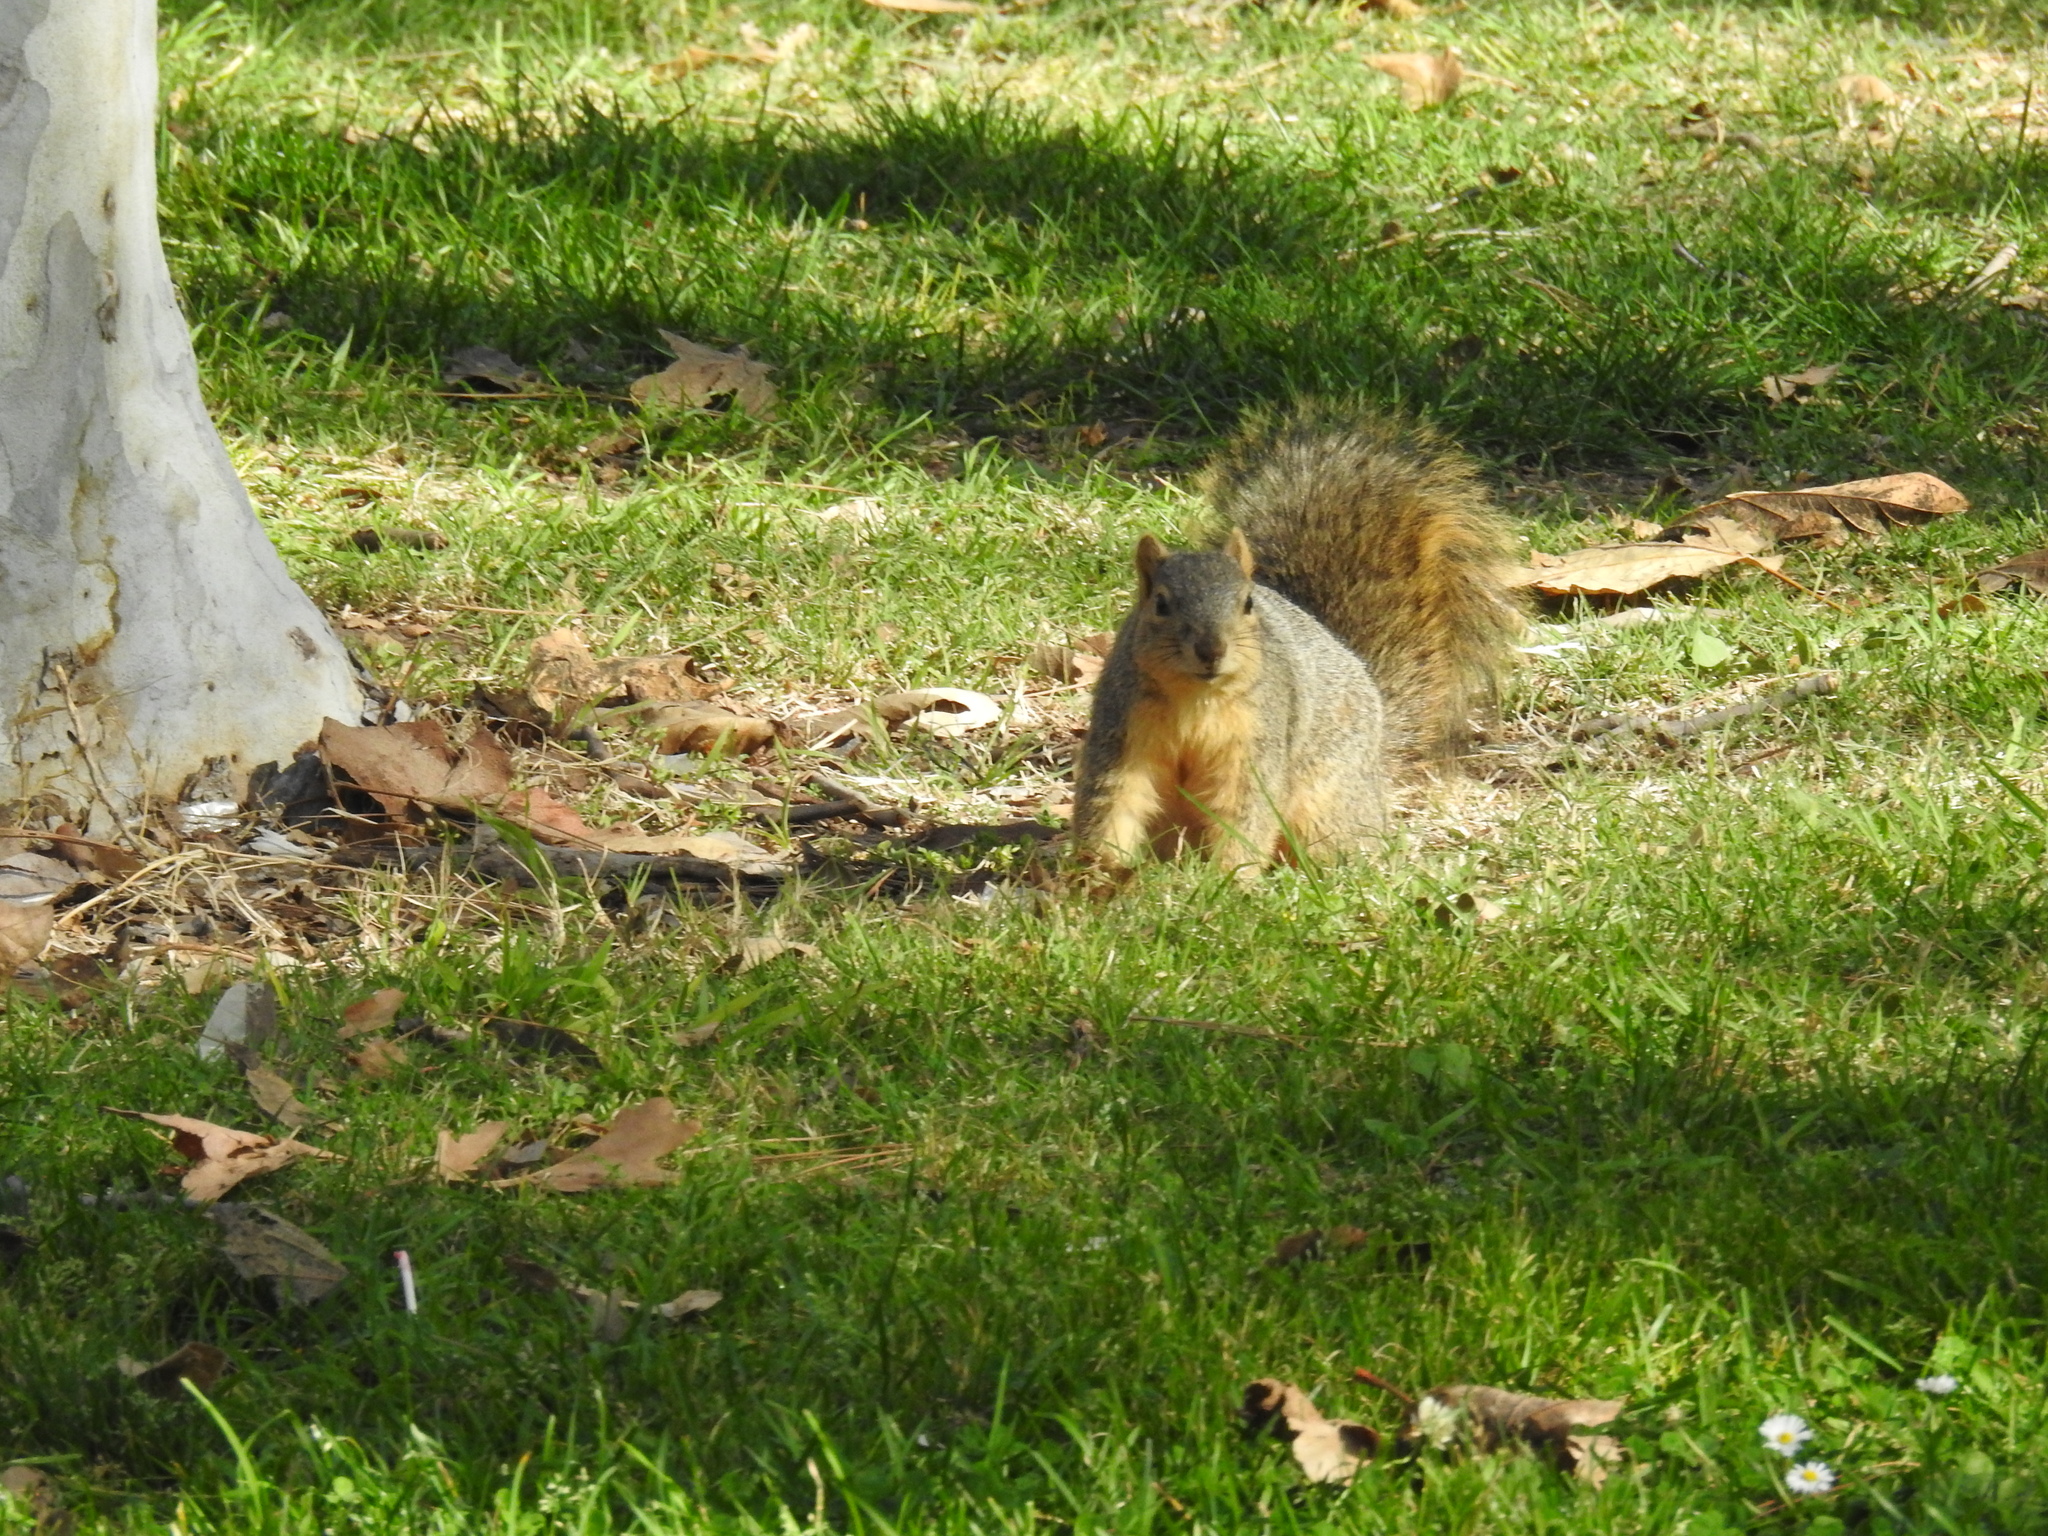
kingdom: Animalia
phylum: Chordata
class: Mammalia
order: Rodentia
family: Sciuridae
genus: Sciurus
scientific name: Sciurus niger
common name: Fox squirrel
